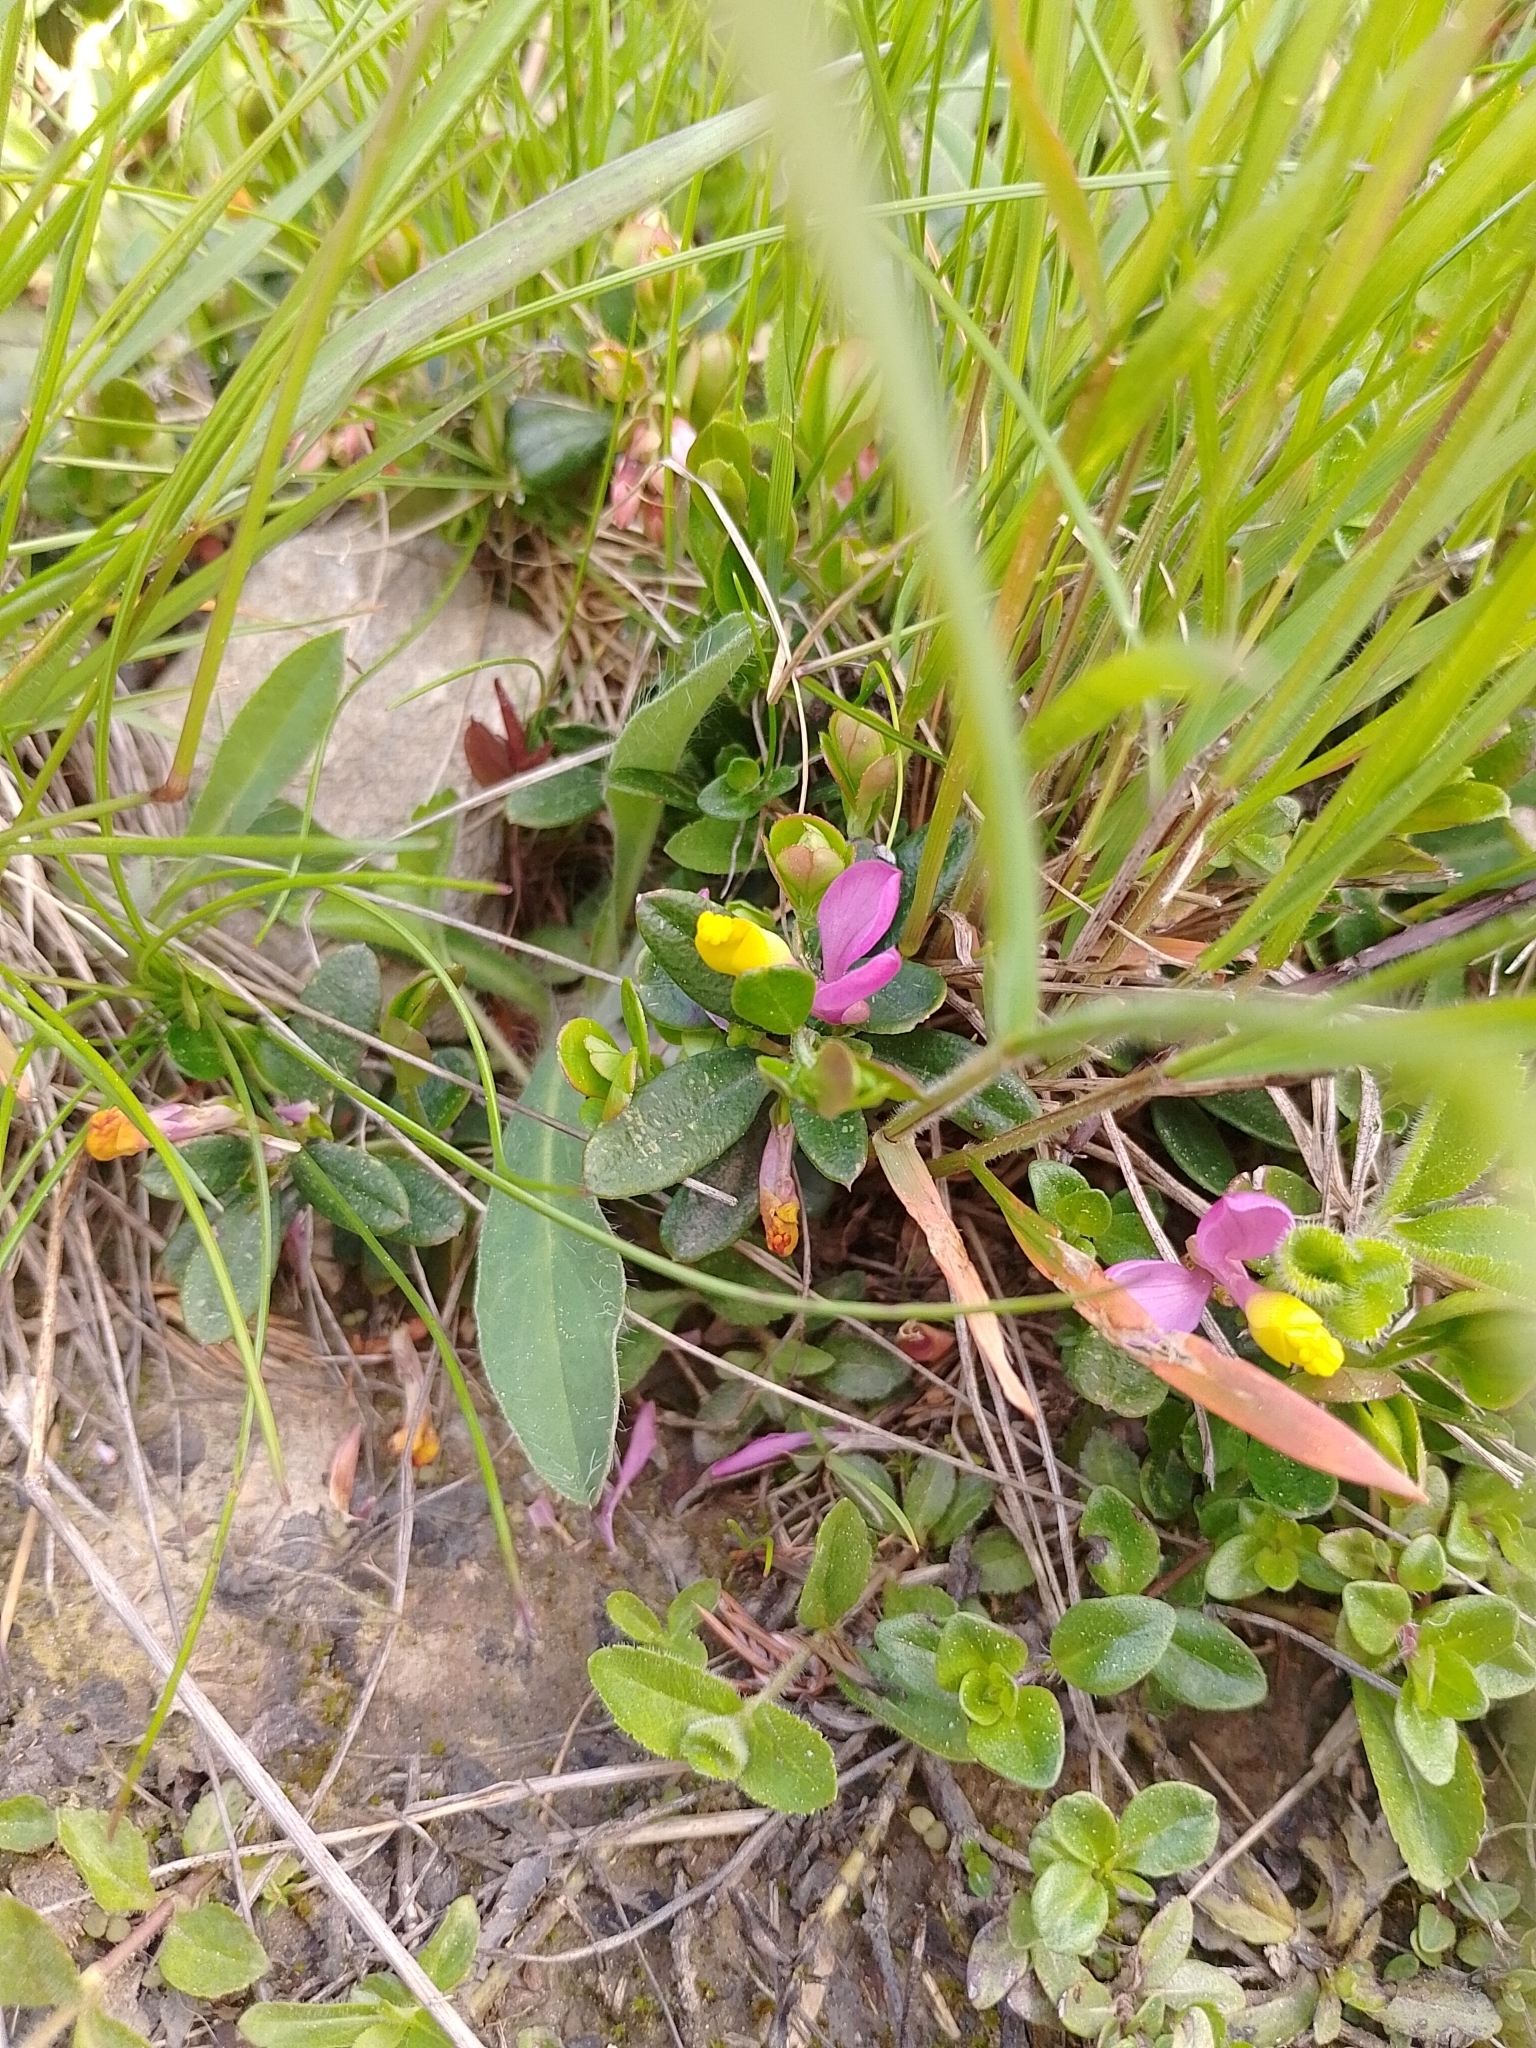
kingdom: Plantae
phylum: Tracheophyta
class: Magnoliopsida
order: Fabales
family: Polygalaceae
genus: Polygaloides
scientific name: Polygaloides chamaebuxus
